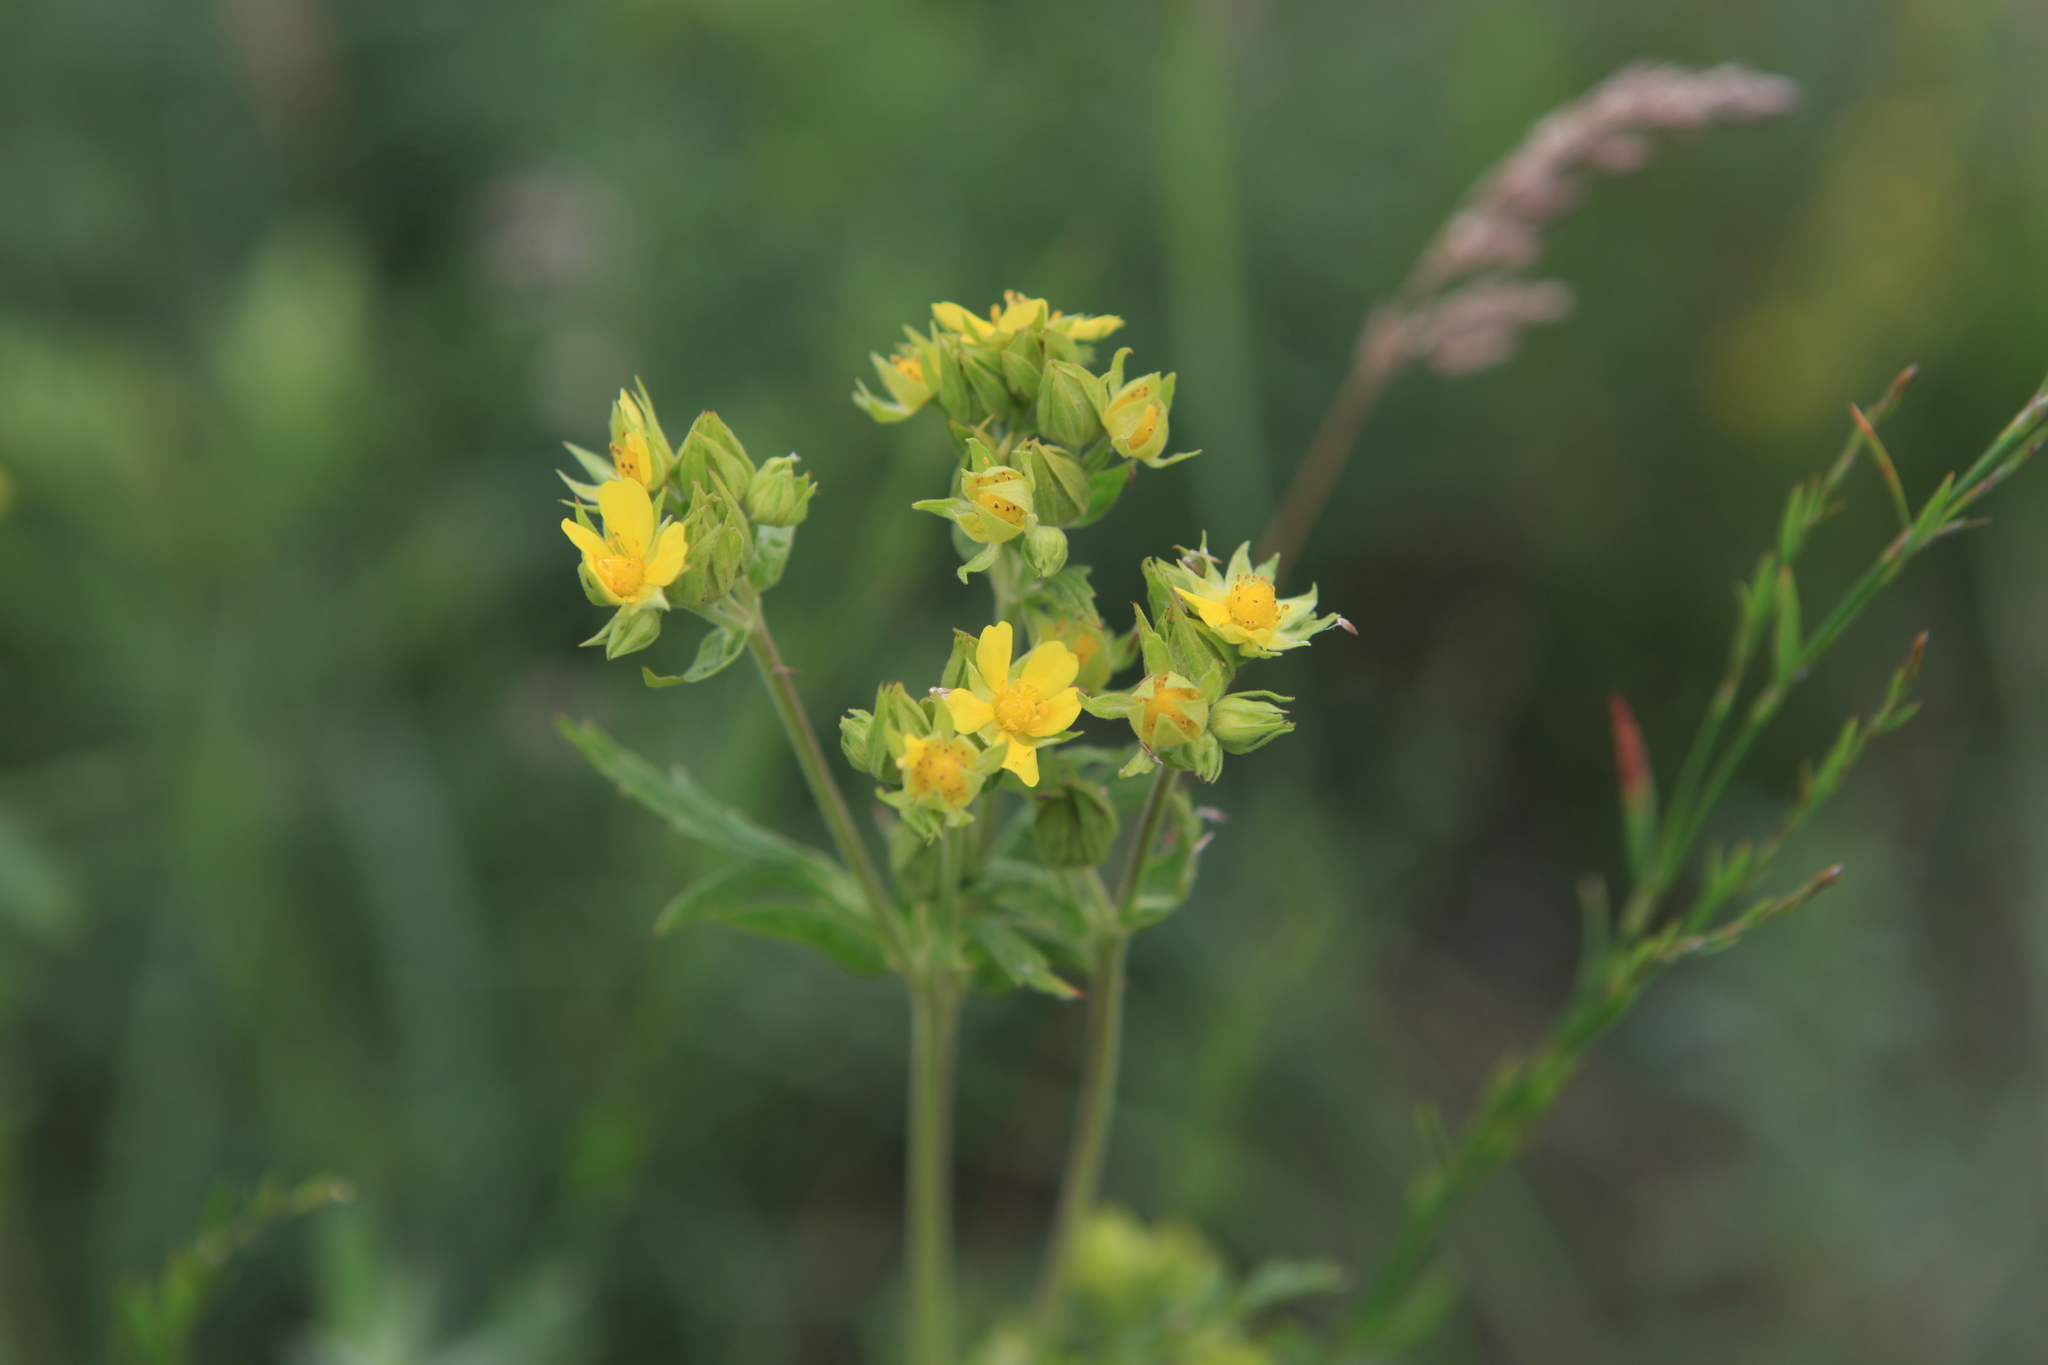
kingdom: Plantae
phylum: Tracheophyta
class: Magnoliopsida
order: Rosales
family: Rosaceae
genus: Potentilla
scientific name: Potentilla longifolia
